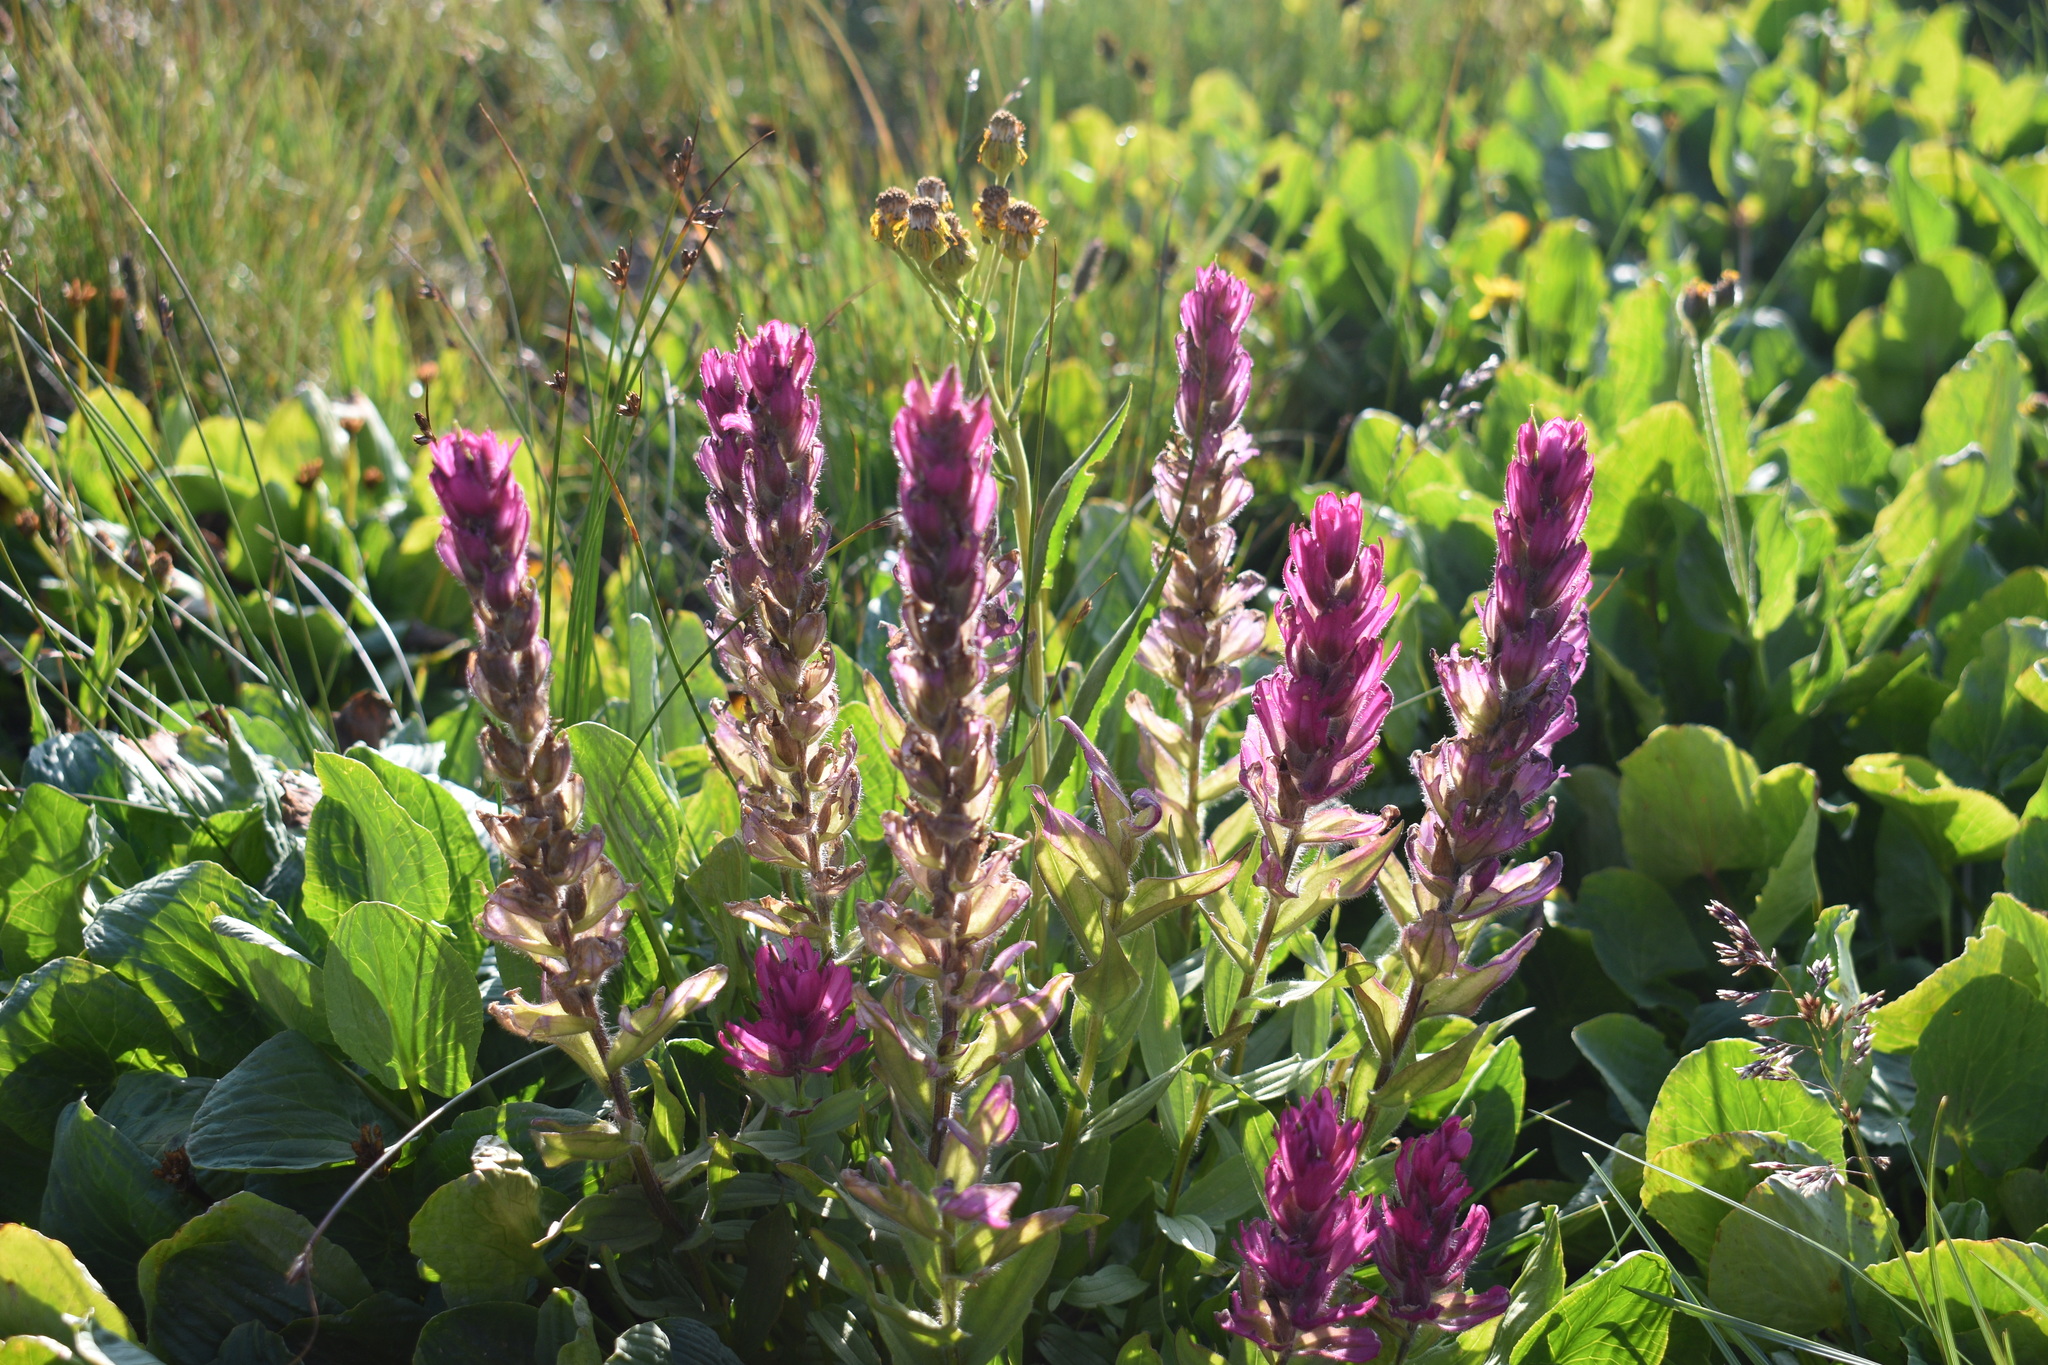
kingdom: Plantae
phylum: Tracheophyta
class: Magnoliopsida
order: Lamiales
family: Orobanchaceae
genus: Castilleja
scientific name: Castilleja rhexifolia
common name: Rocky mountain paintbrush
